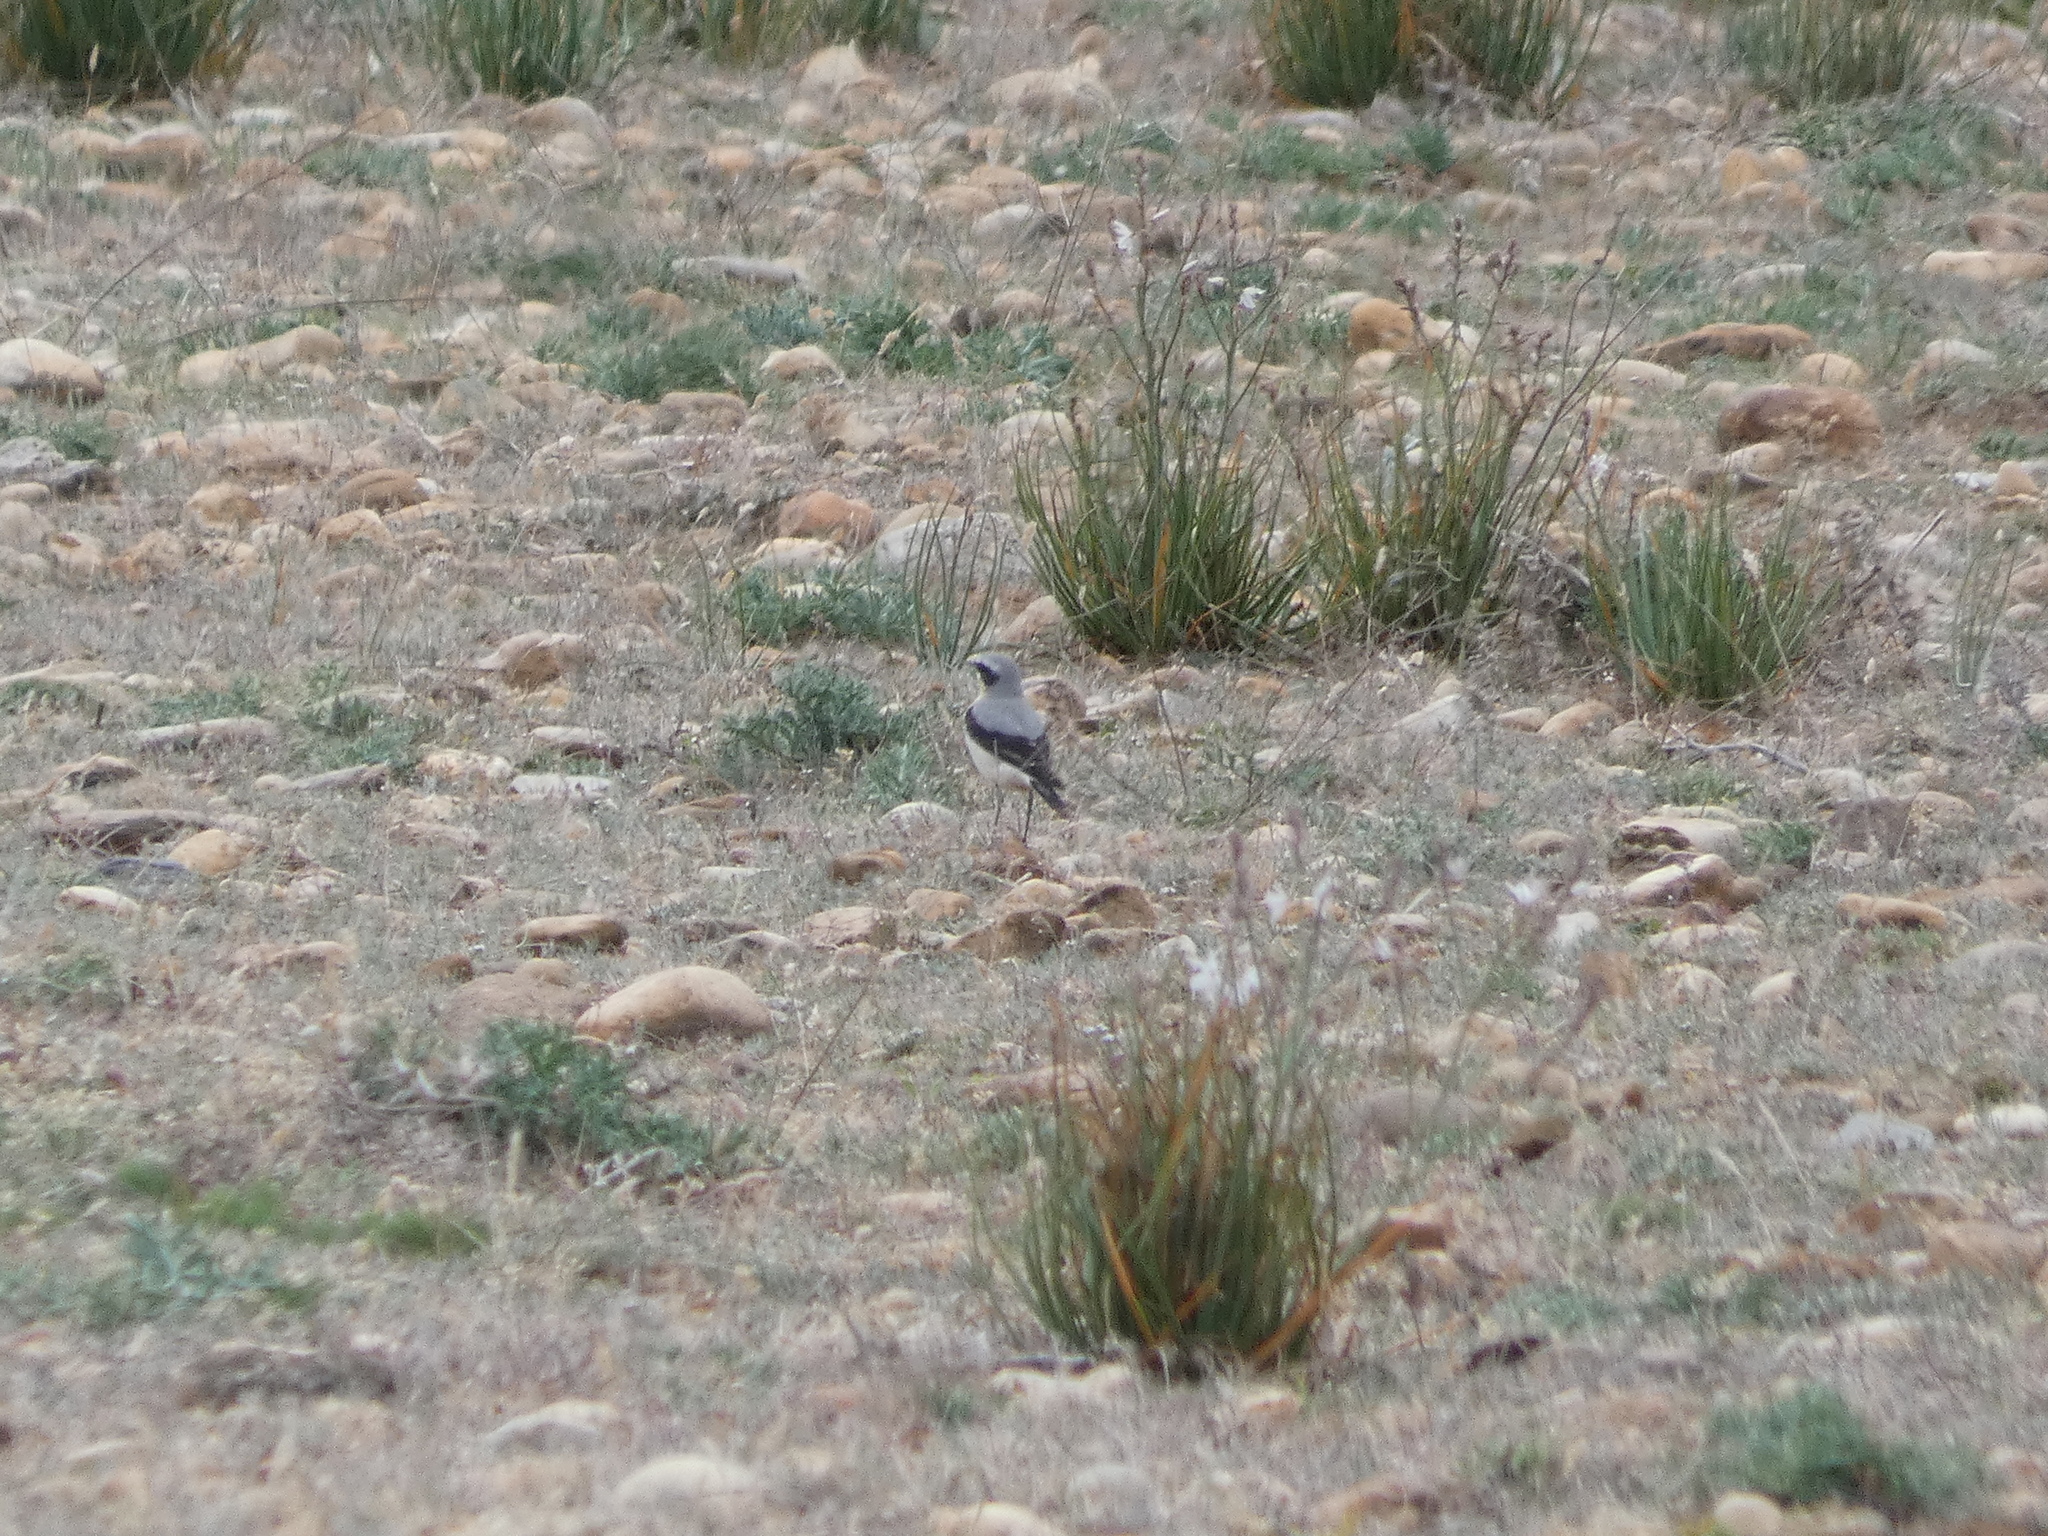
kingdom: Animalia
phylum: Chordata
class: Aves
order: Passeriformes
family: Muscicapidae
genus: Oenanthe
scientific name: Oenanthe oenanthe
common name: Northern wheatear
